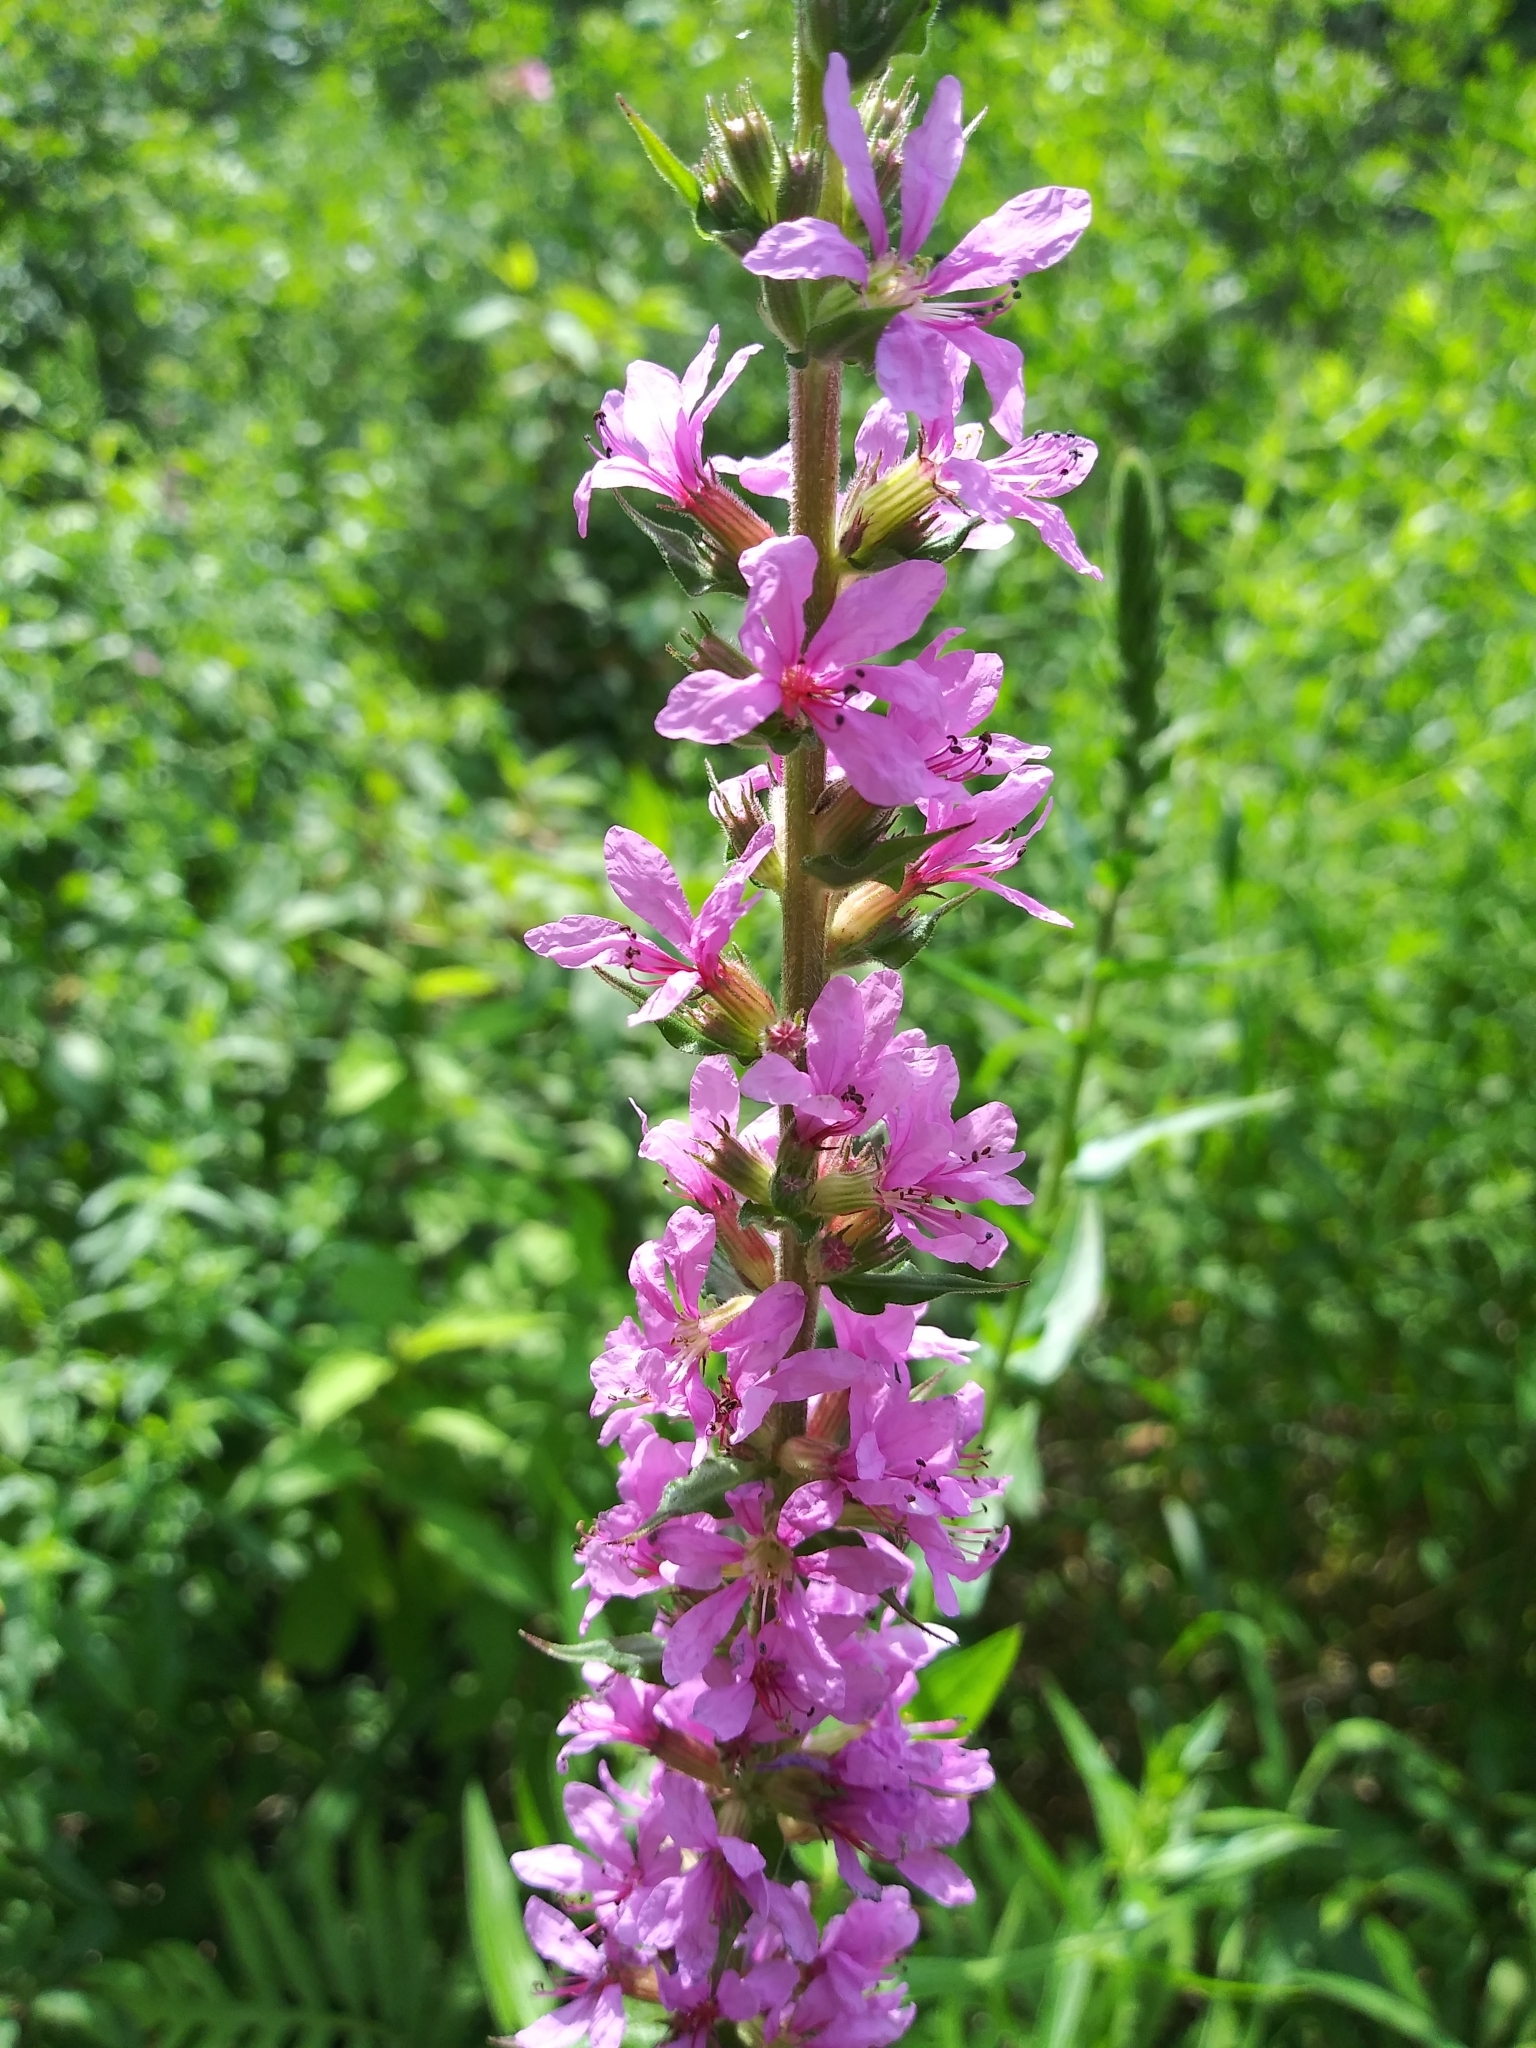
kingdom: Plantae
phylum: Tracheophyta
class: Magnoliopsida
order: Myrtales
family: Lythraceae
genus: Lythrum
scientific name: Lythrum salicaria
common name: Purple loosestrife
